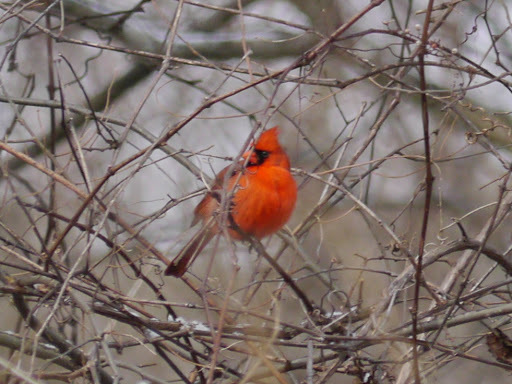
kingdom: Animalia
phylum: Chordata
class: Aves
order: Passeriformes
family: Cardinalidae
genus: Cardinalis
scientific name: Cardinalis cardinalis
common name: Northern cardinal
